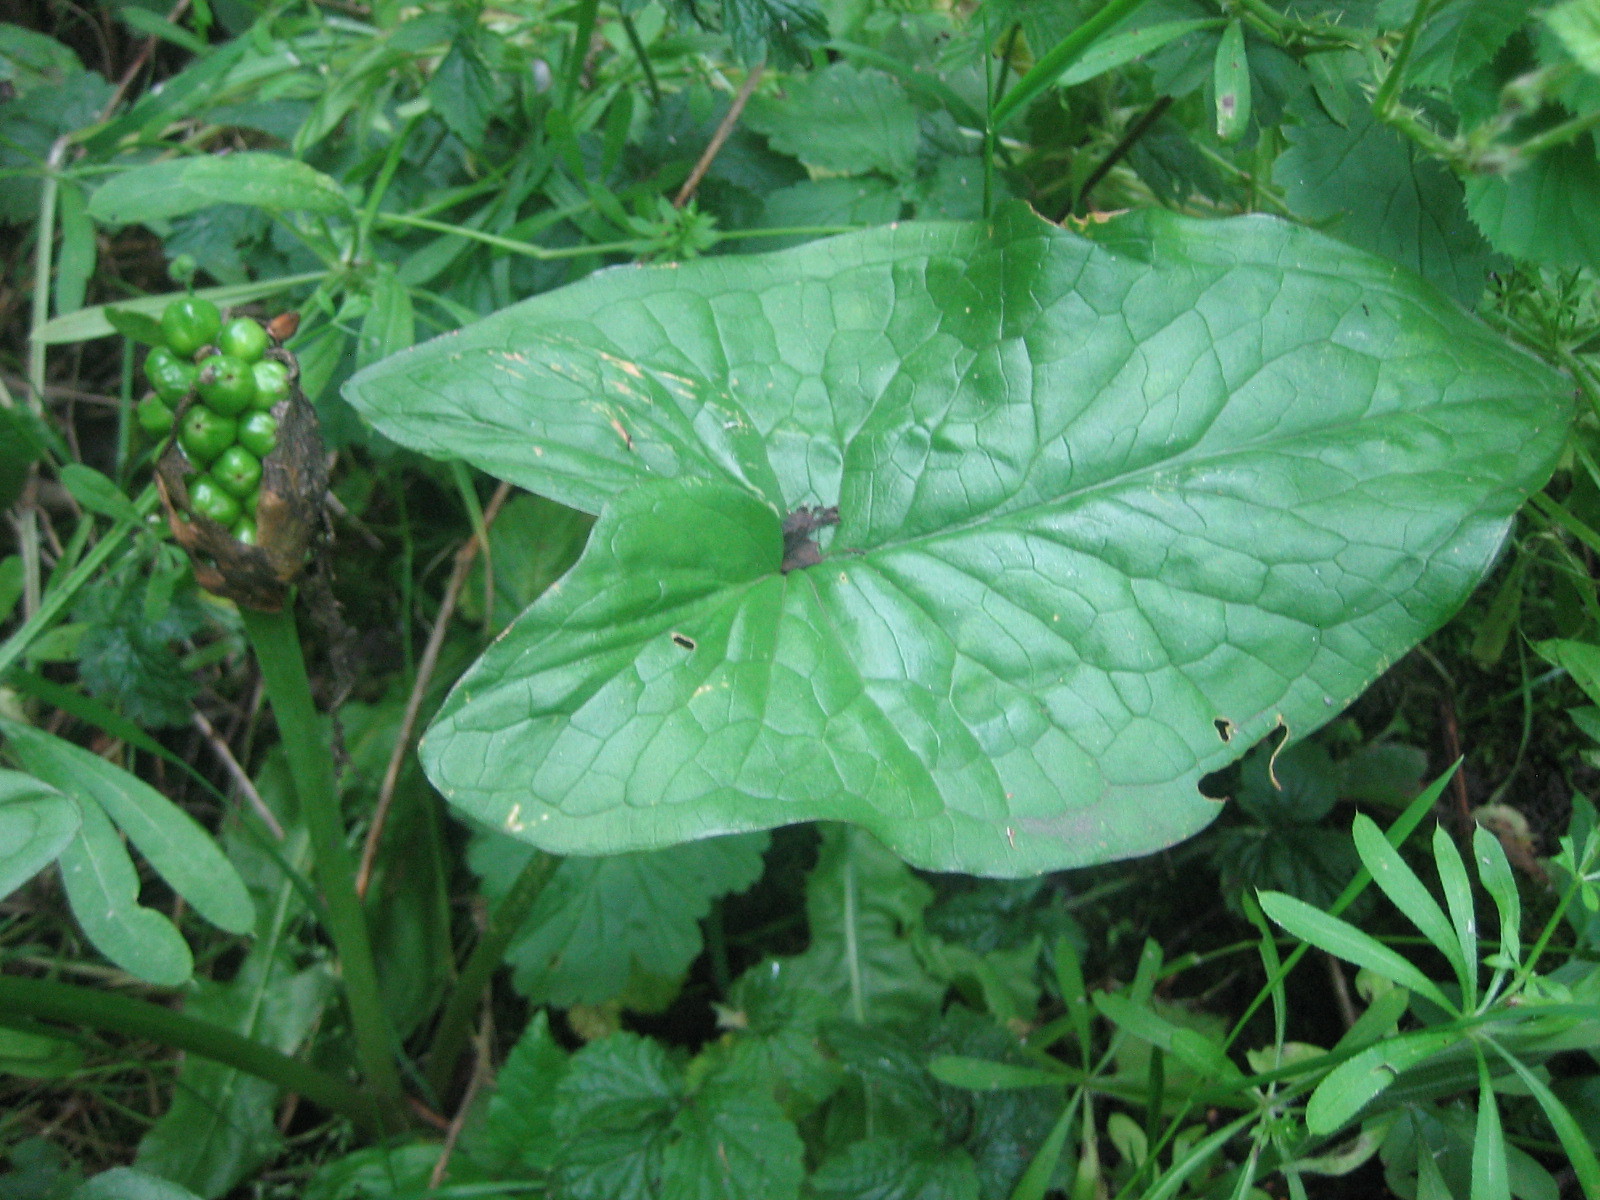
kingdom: Plantae
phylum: Tracheophyta
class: Liliopsida
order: Alismatales
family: Araceae
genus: Arum
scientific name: Arum maculatum
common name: Lords-and-ladies
